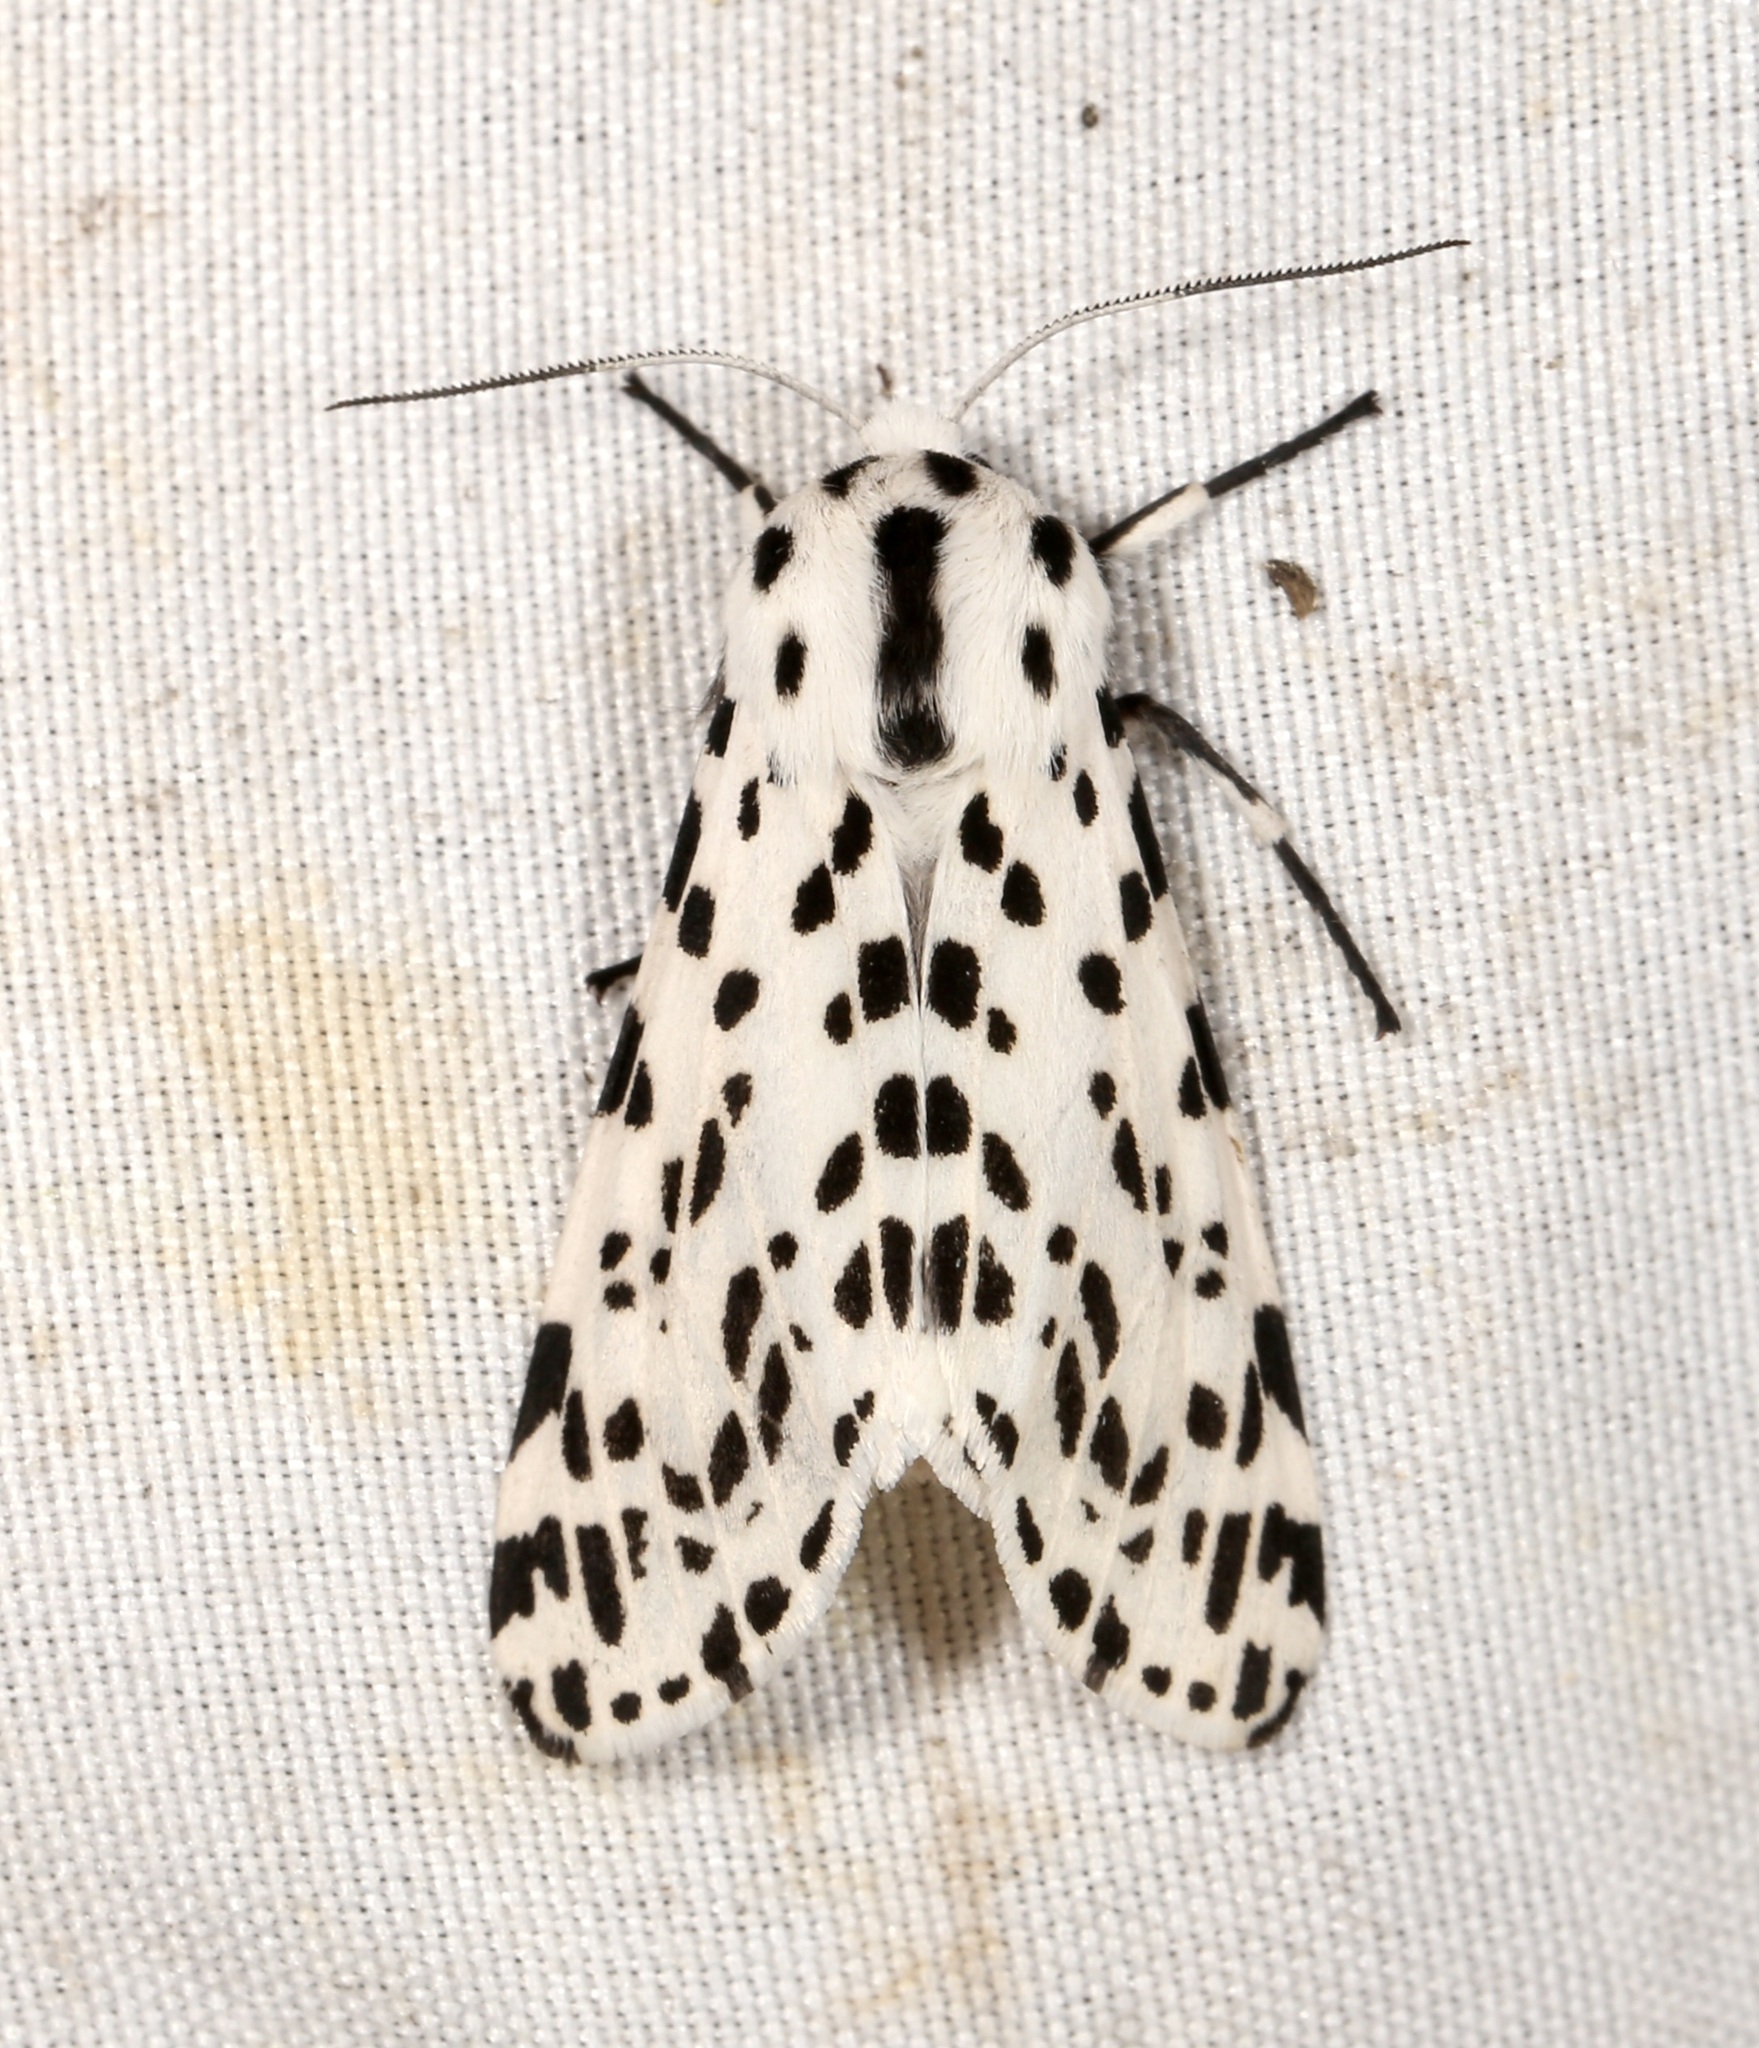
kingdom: Animalia
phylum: Arthropoda
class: Insecta
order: Lepidoptera
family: Erebidae
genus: Hypercompe
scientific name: Hypercompe permaculata
